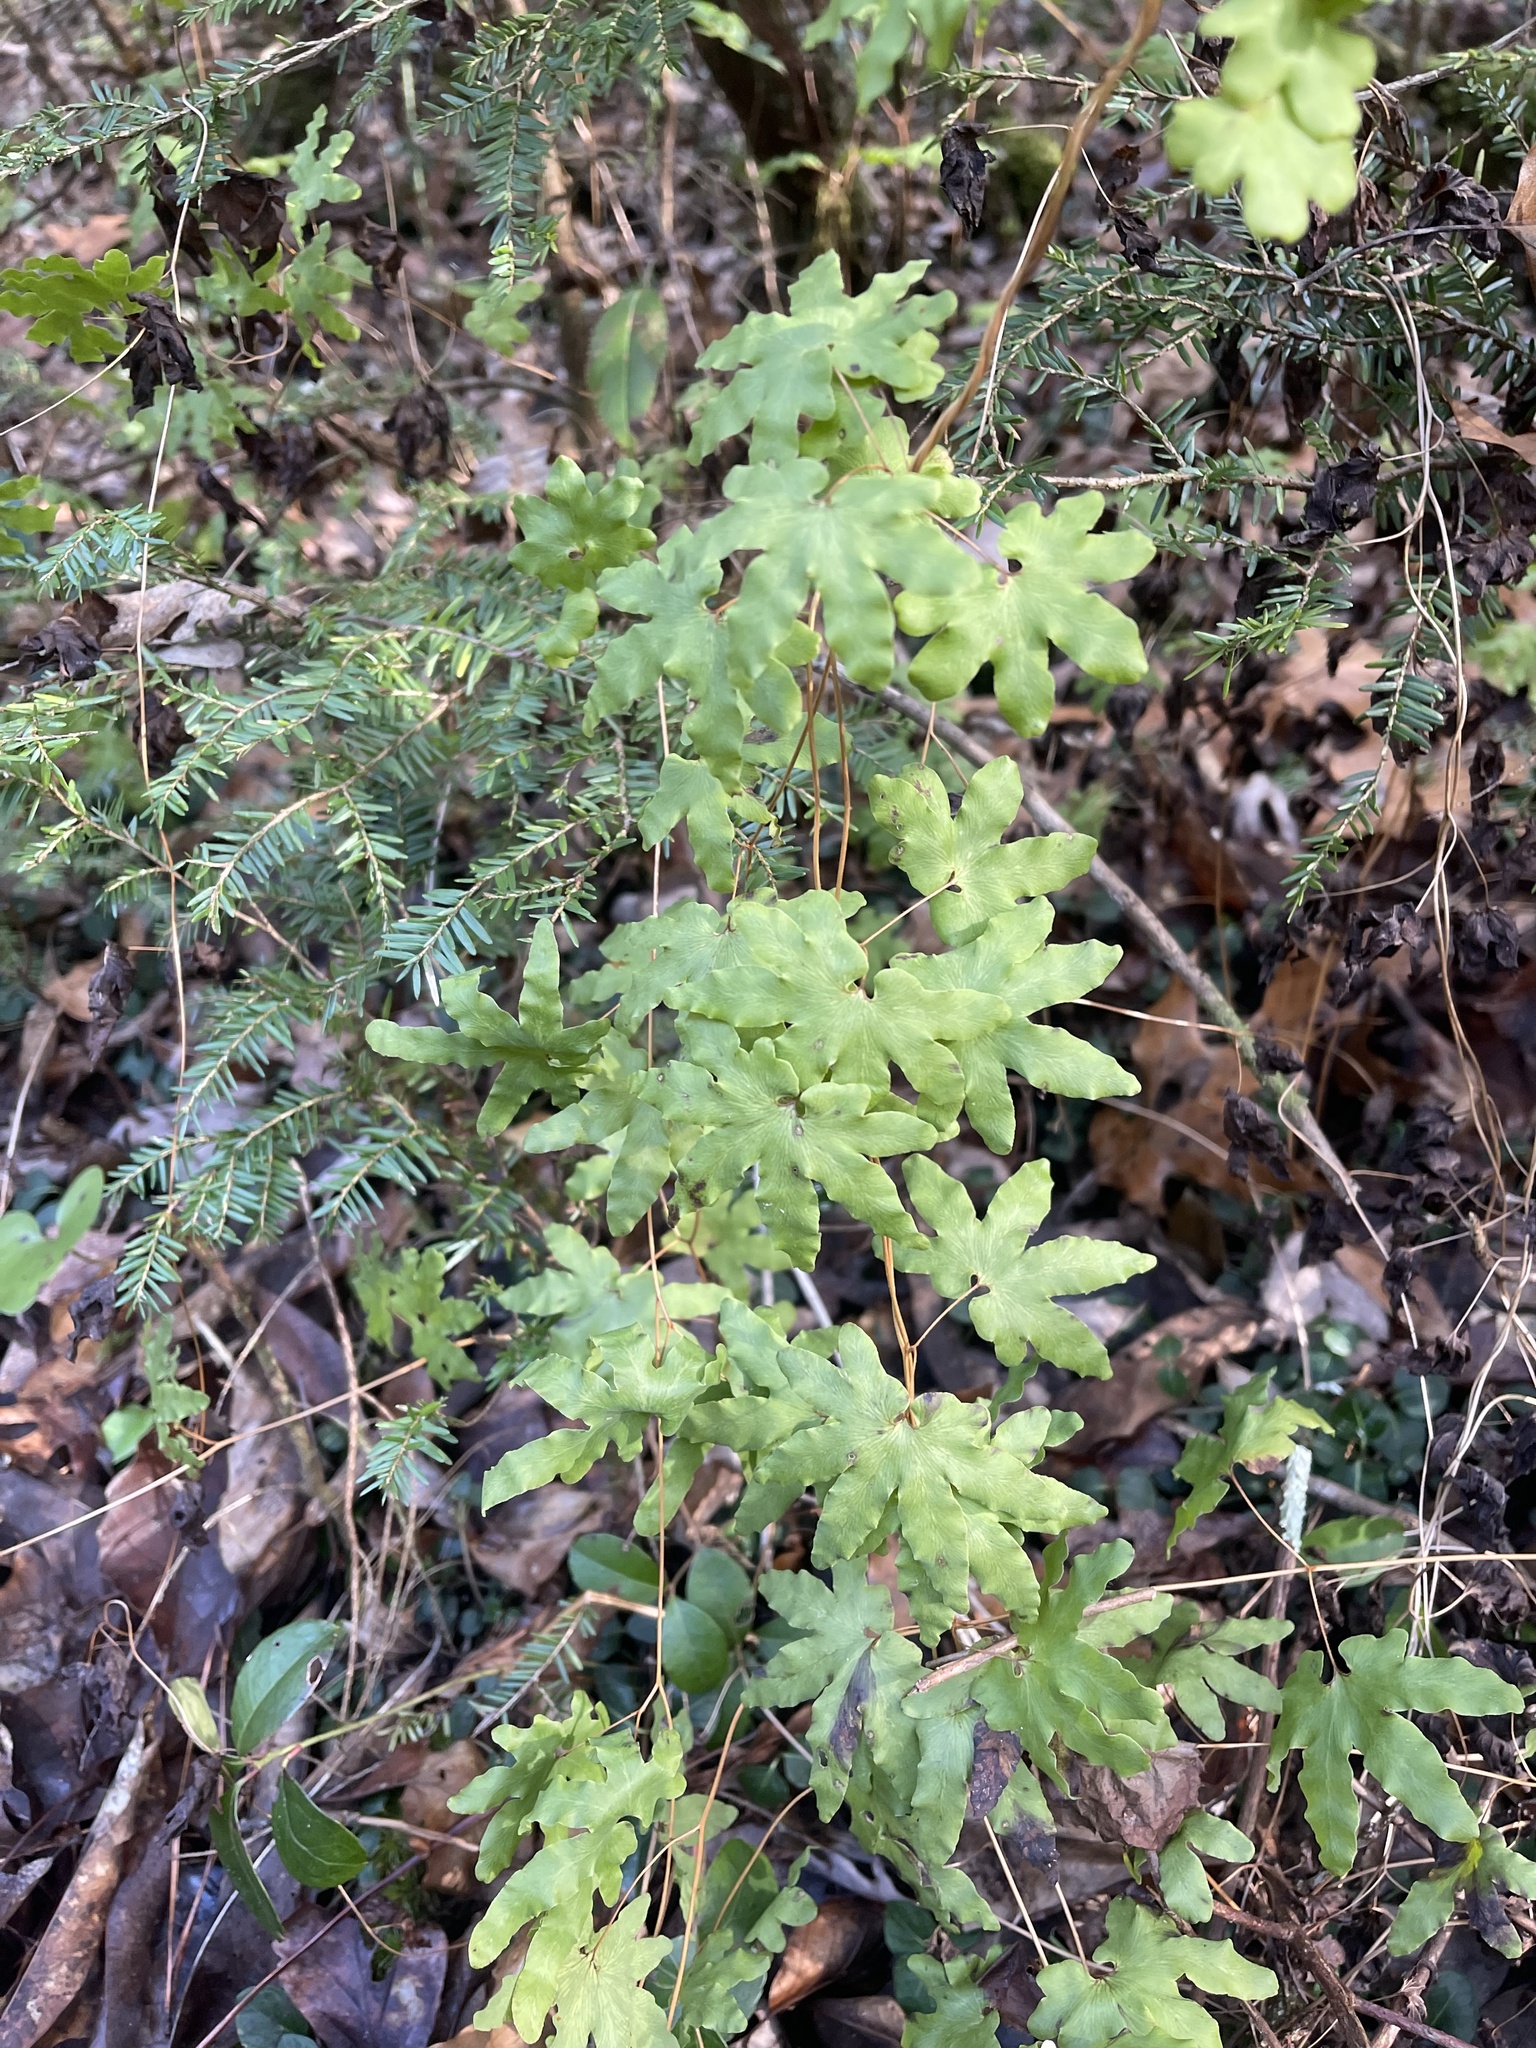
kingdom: Plantae
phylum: Tracheophyta
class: Polypodiopsida
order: Schizaeales
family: Lygodiaceae
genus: Lygodium
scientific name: Lygodium palmatum
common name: American climbing fern
